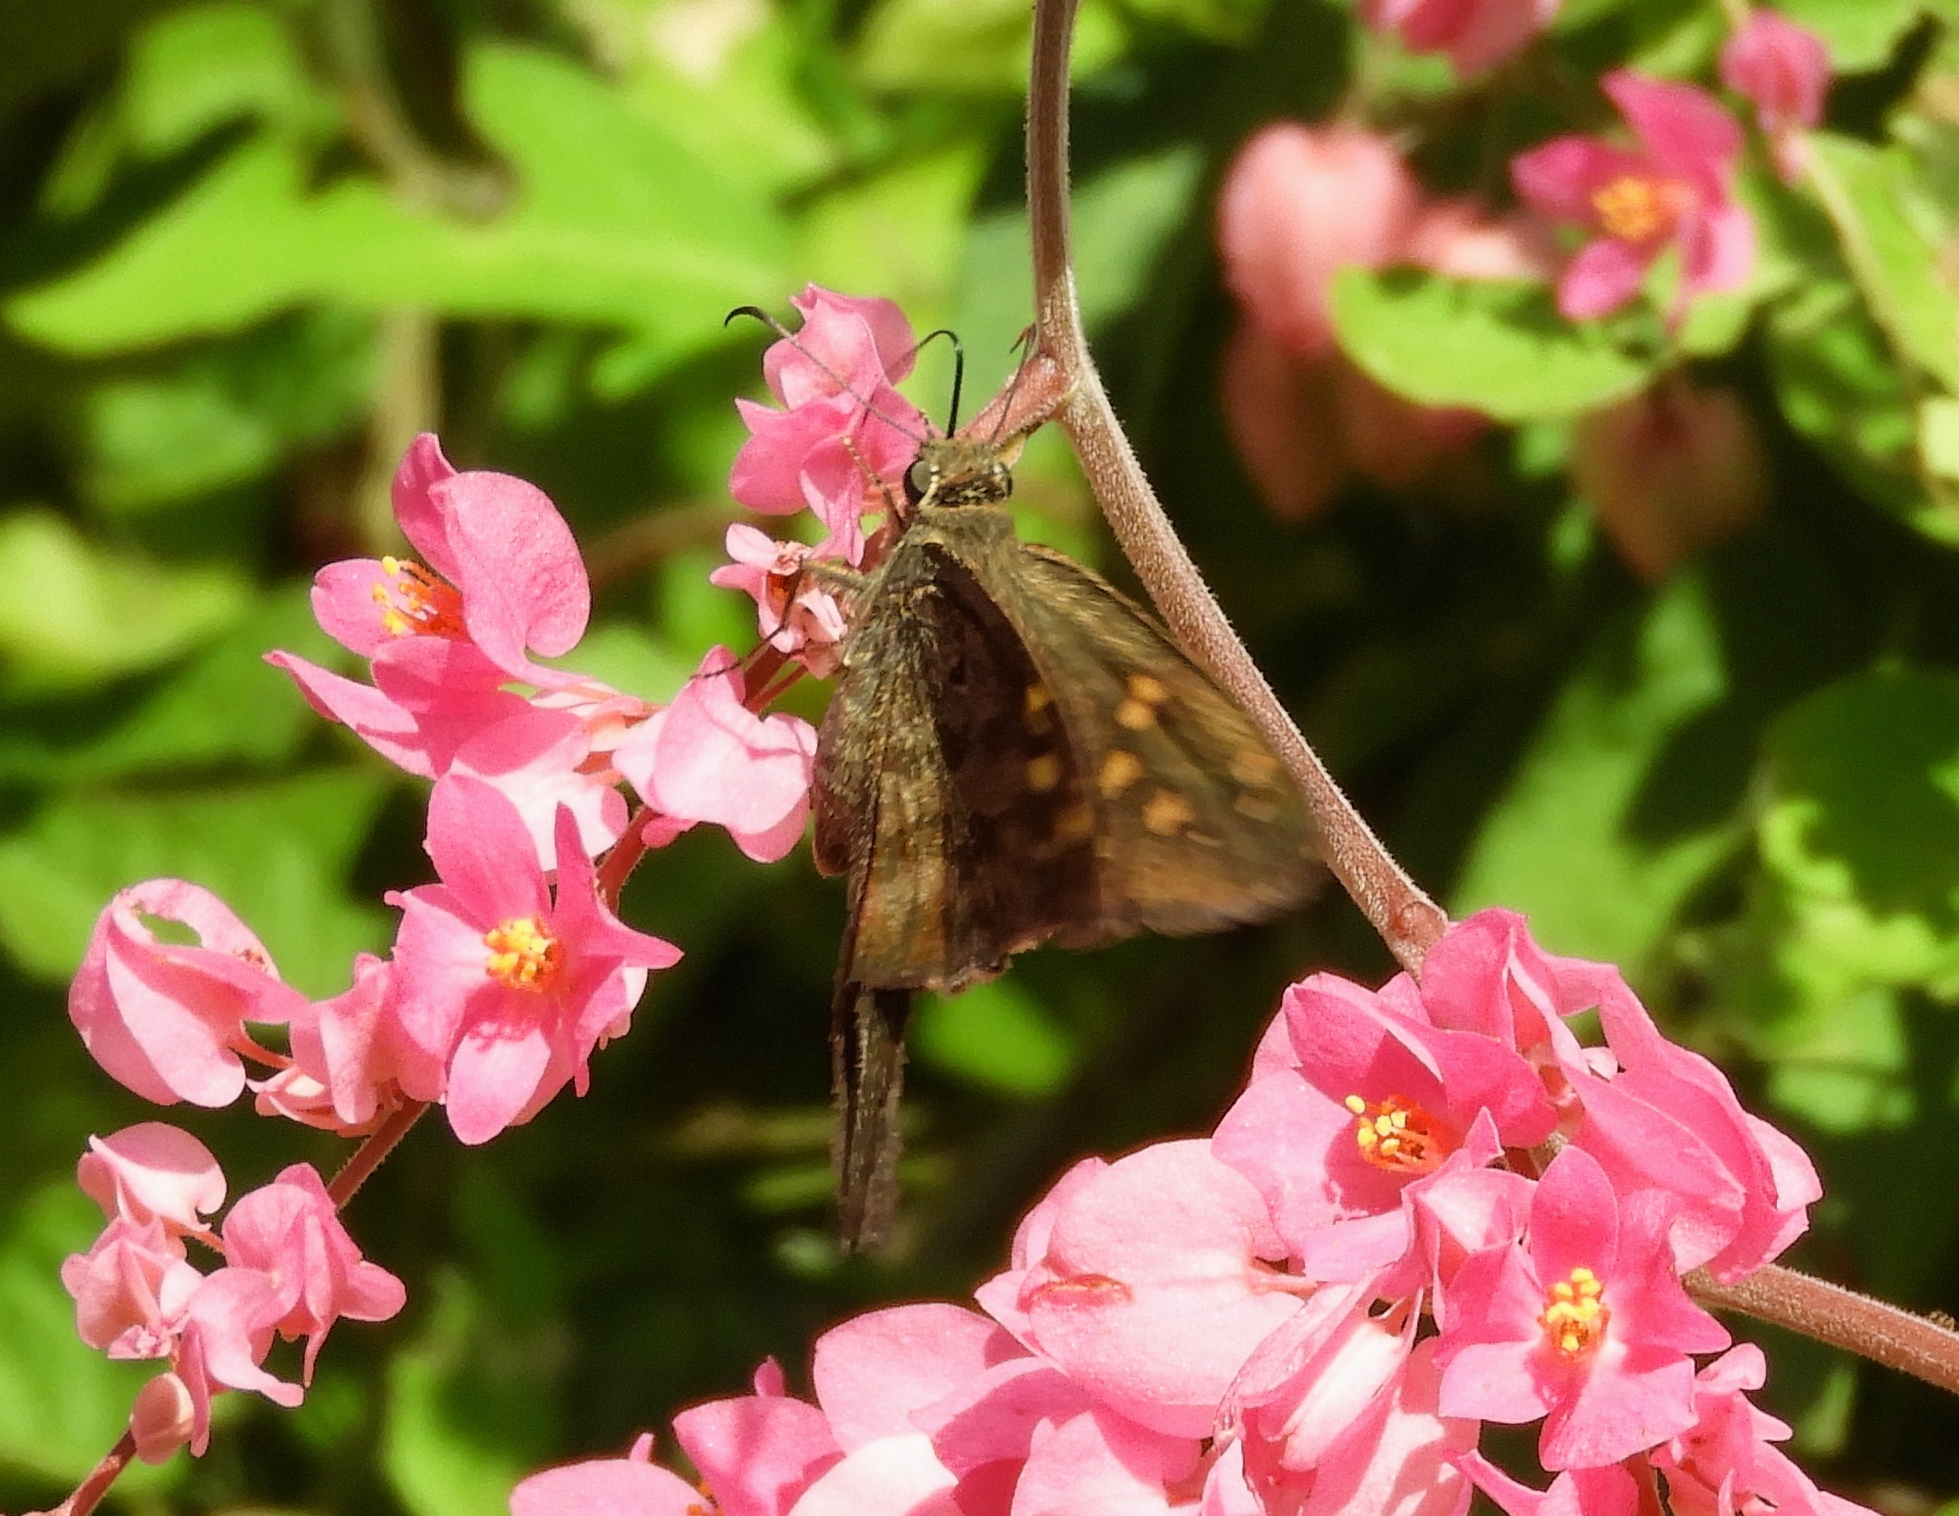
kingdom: Animalia
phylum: Arthropoda
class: Insecta
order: Lepidoptera
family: Hesperiidae
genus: Thorybes
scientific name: Thorybes
